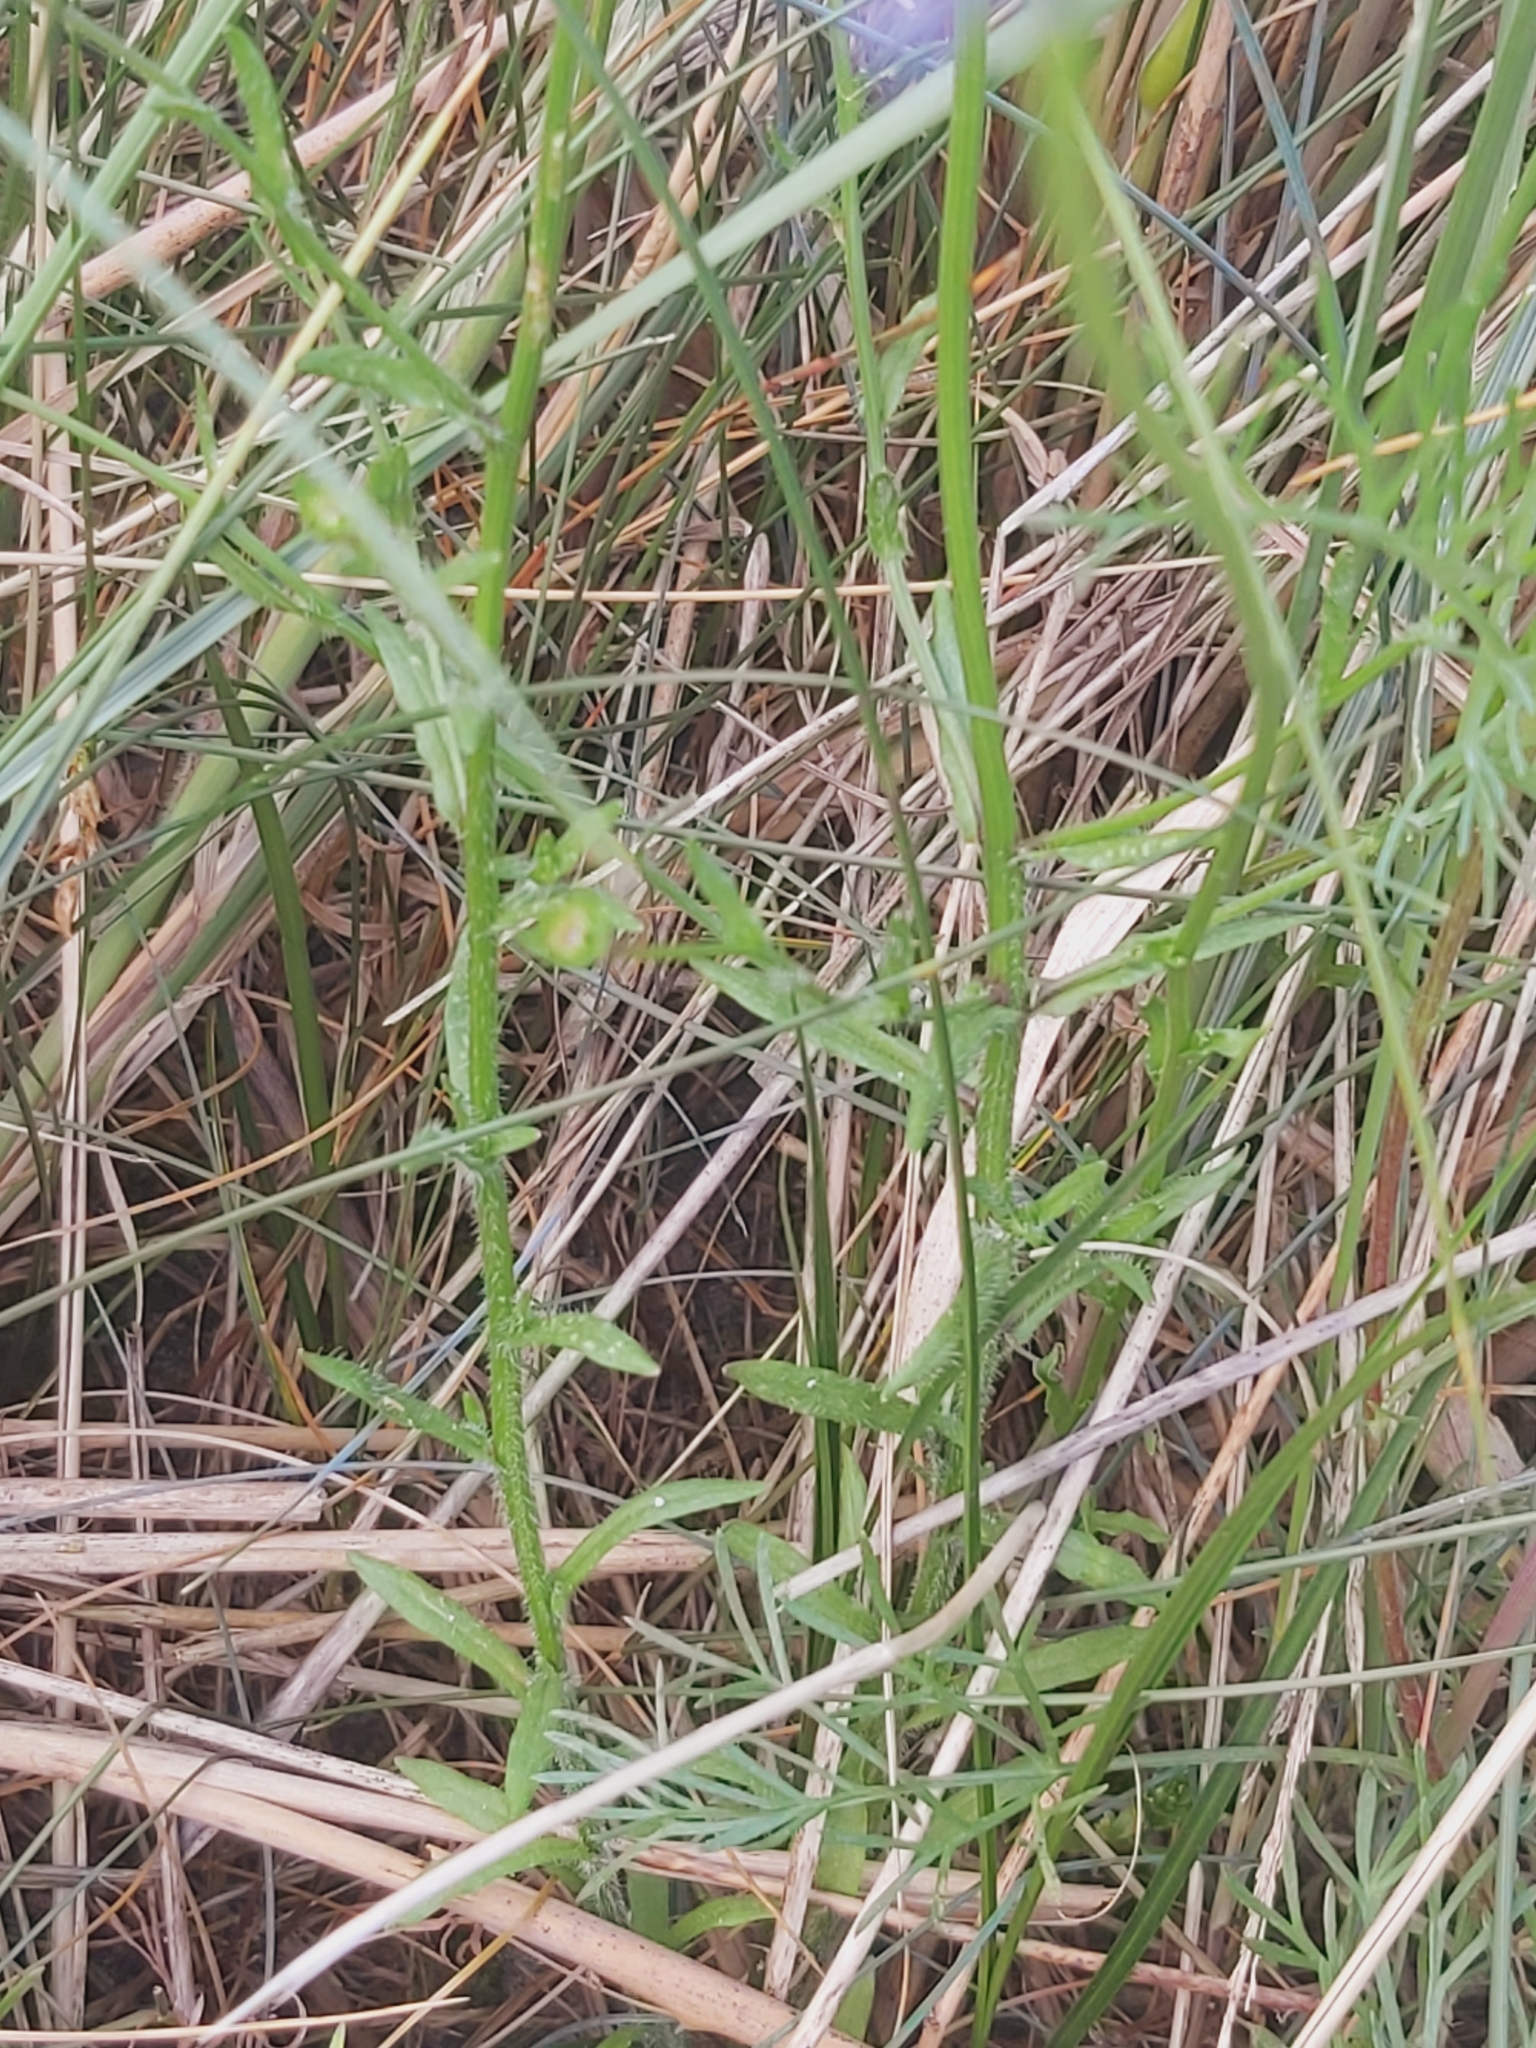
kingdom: Plantae
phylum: Tracheophyta
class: Magnoliopsida
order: Asterales
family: Campanulaceae
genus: Jasione
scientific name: Jasione montana
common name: Sheep's-bit
